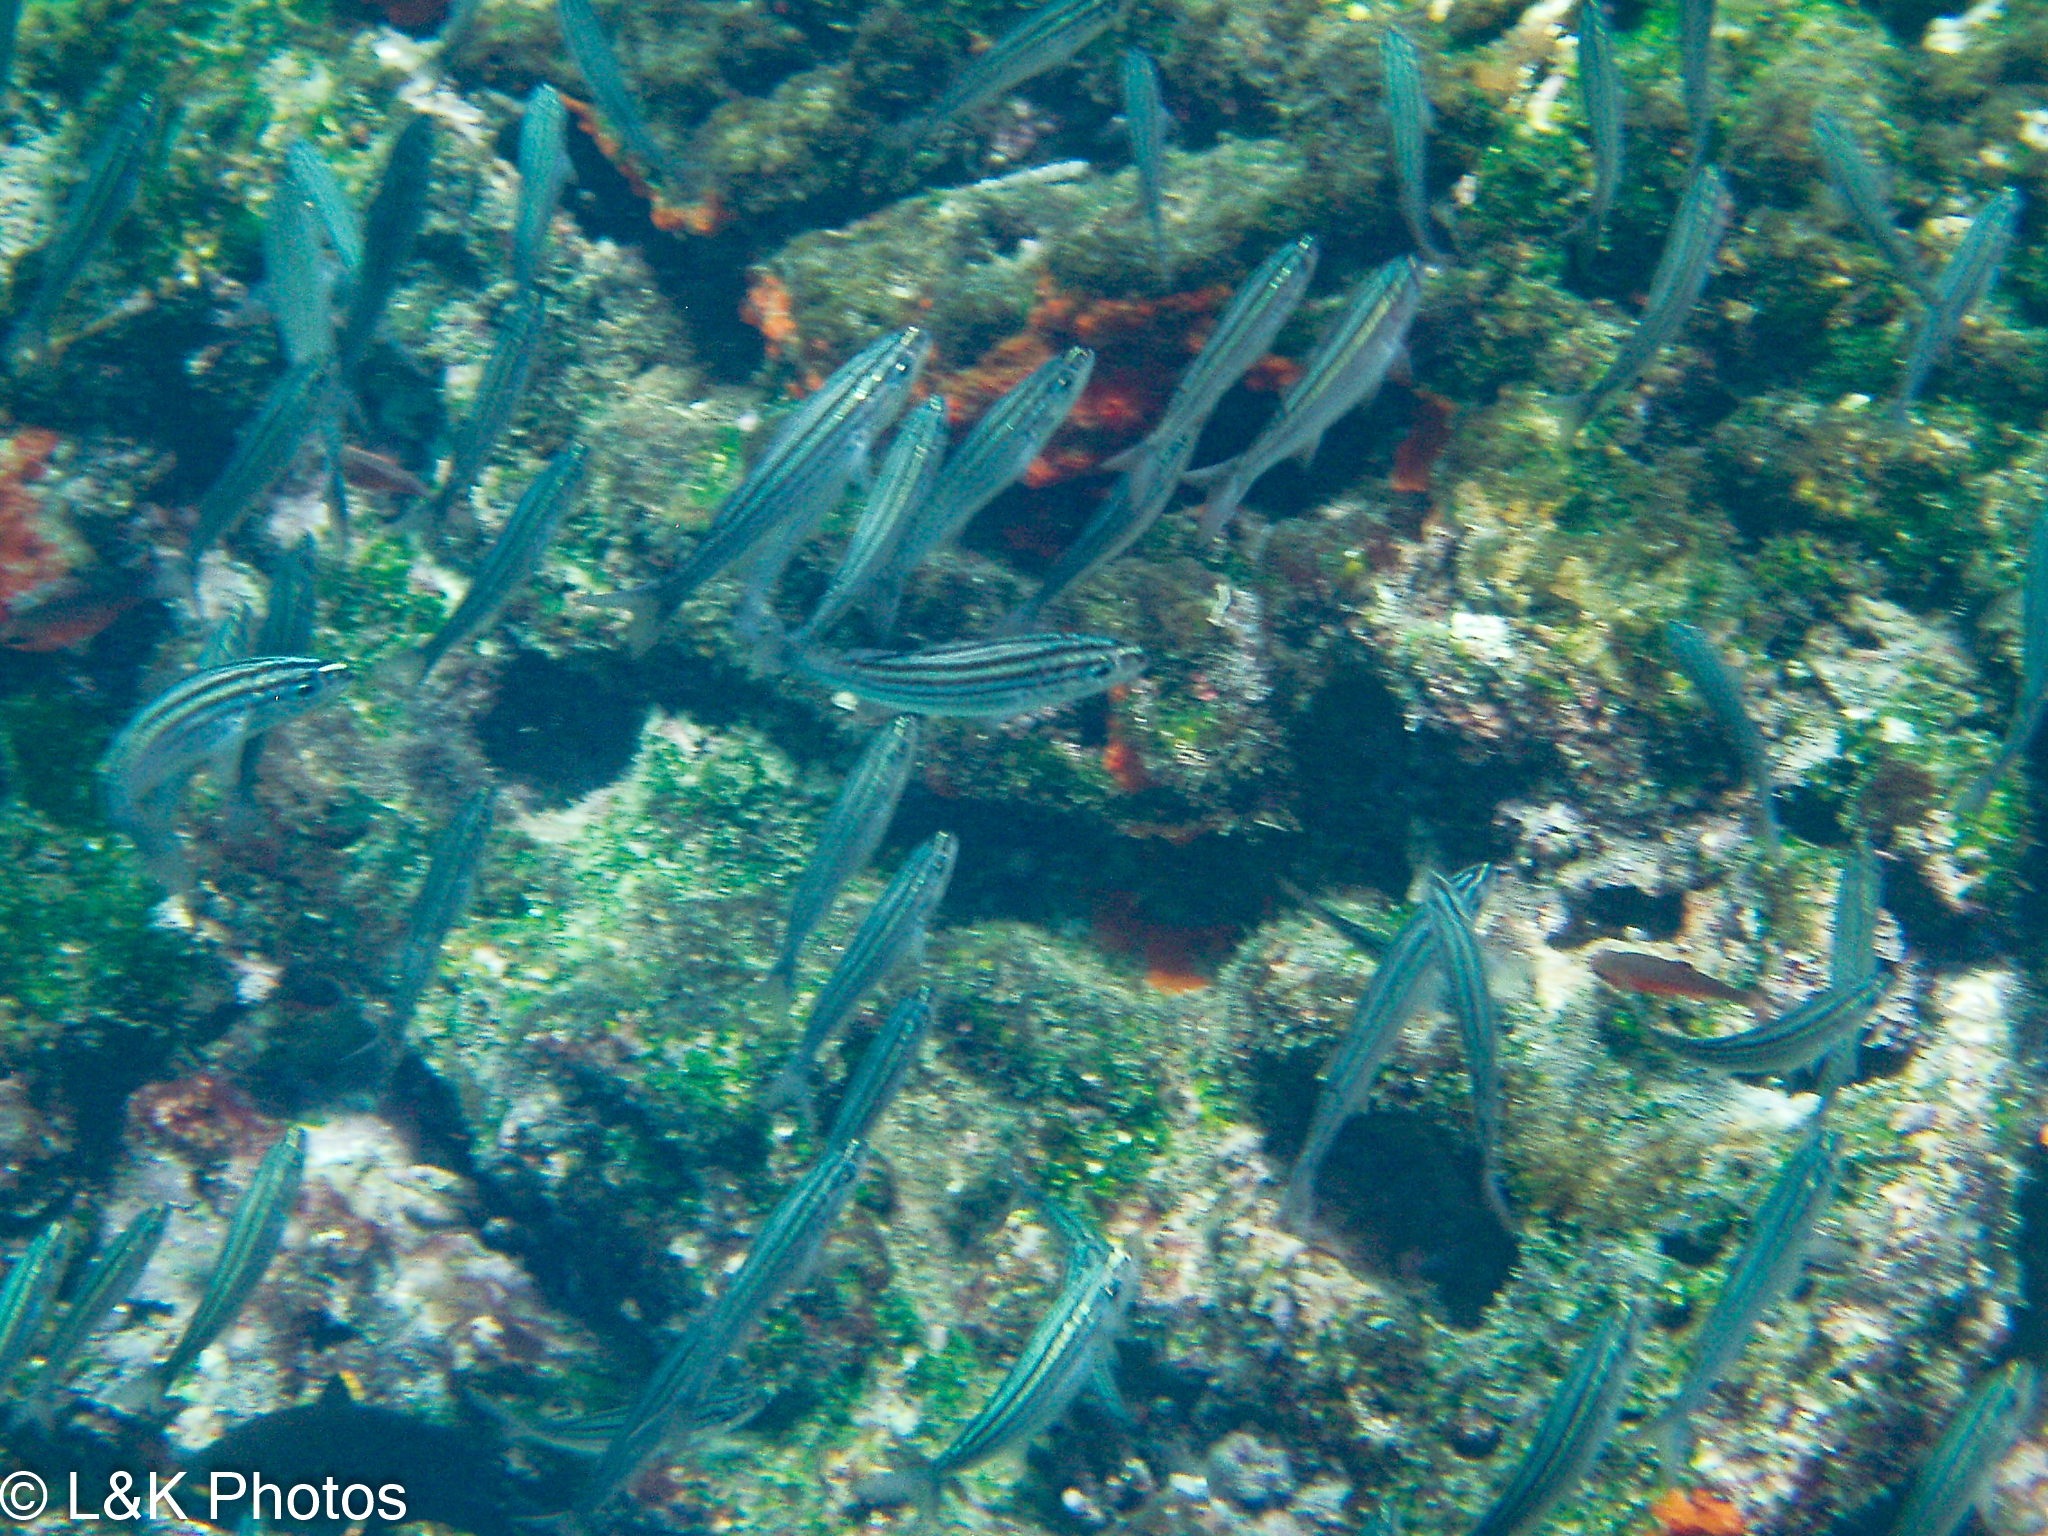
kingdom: Animalia
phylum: Chordata
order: Perciformes
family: Haemulidae
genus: Xenocys
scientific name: Xenocys jessiae
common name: Black-striped salema
